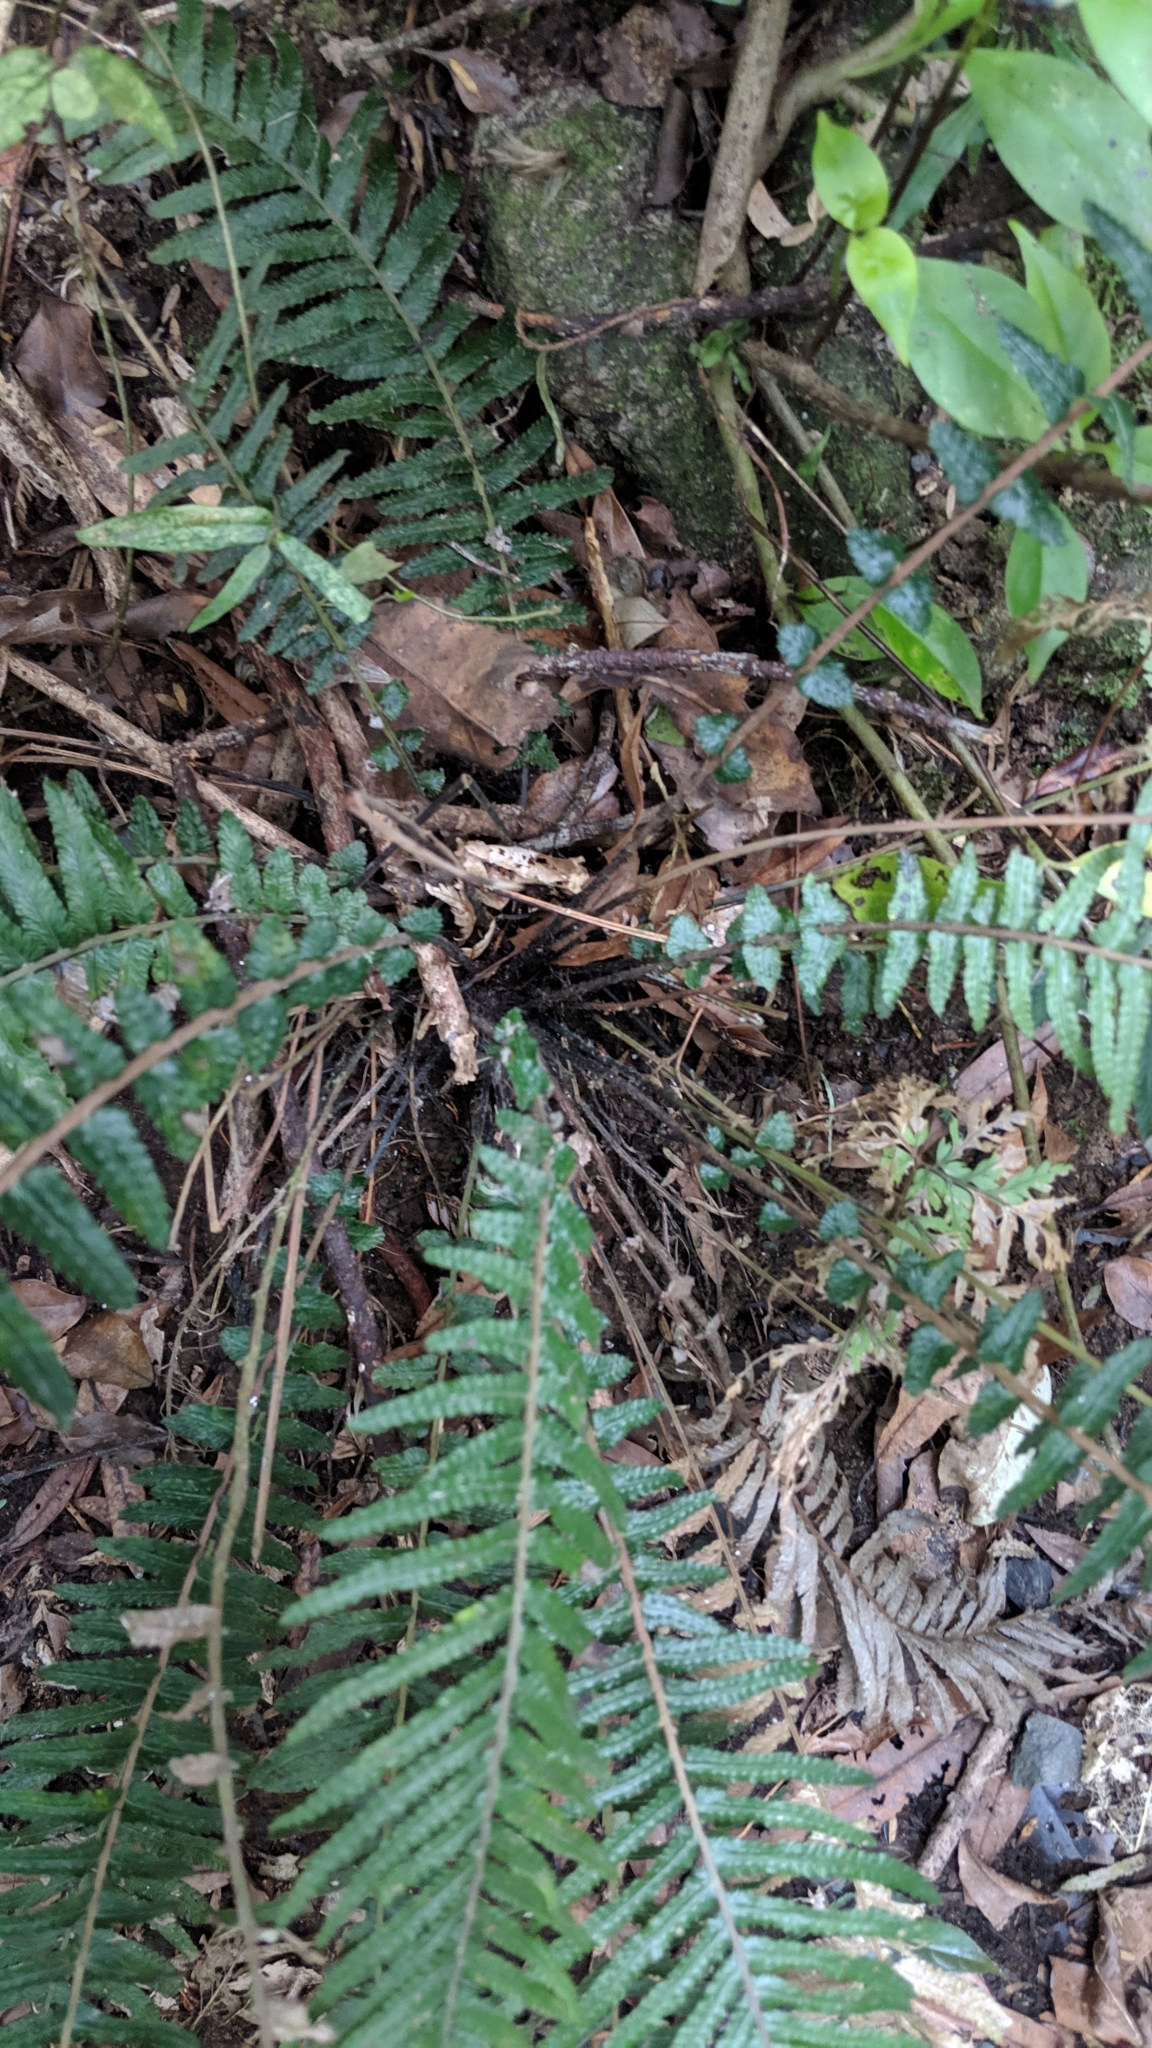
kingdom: Plantae
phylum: Tracheophyta
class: Polypodiopsida
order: Polypodiales
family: Blechnaceae
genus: Doodia
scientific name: Doodia australis
